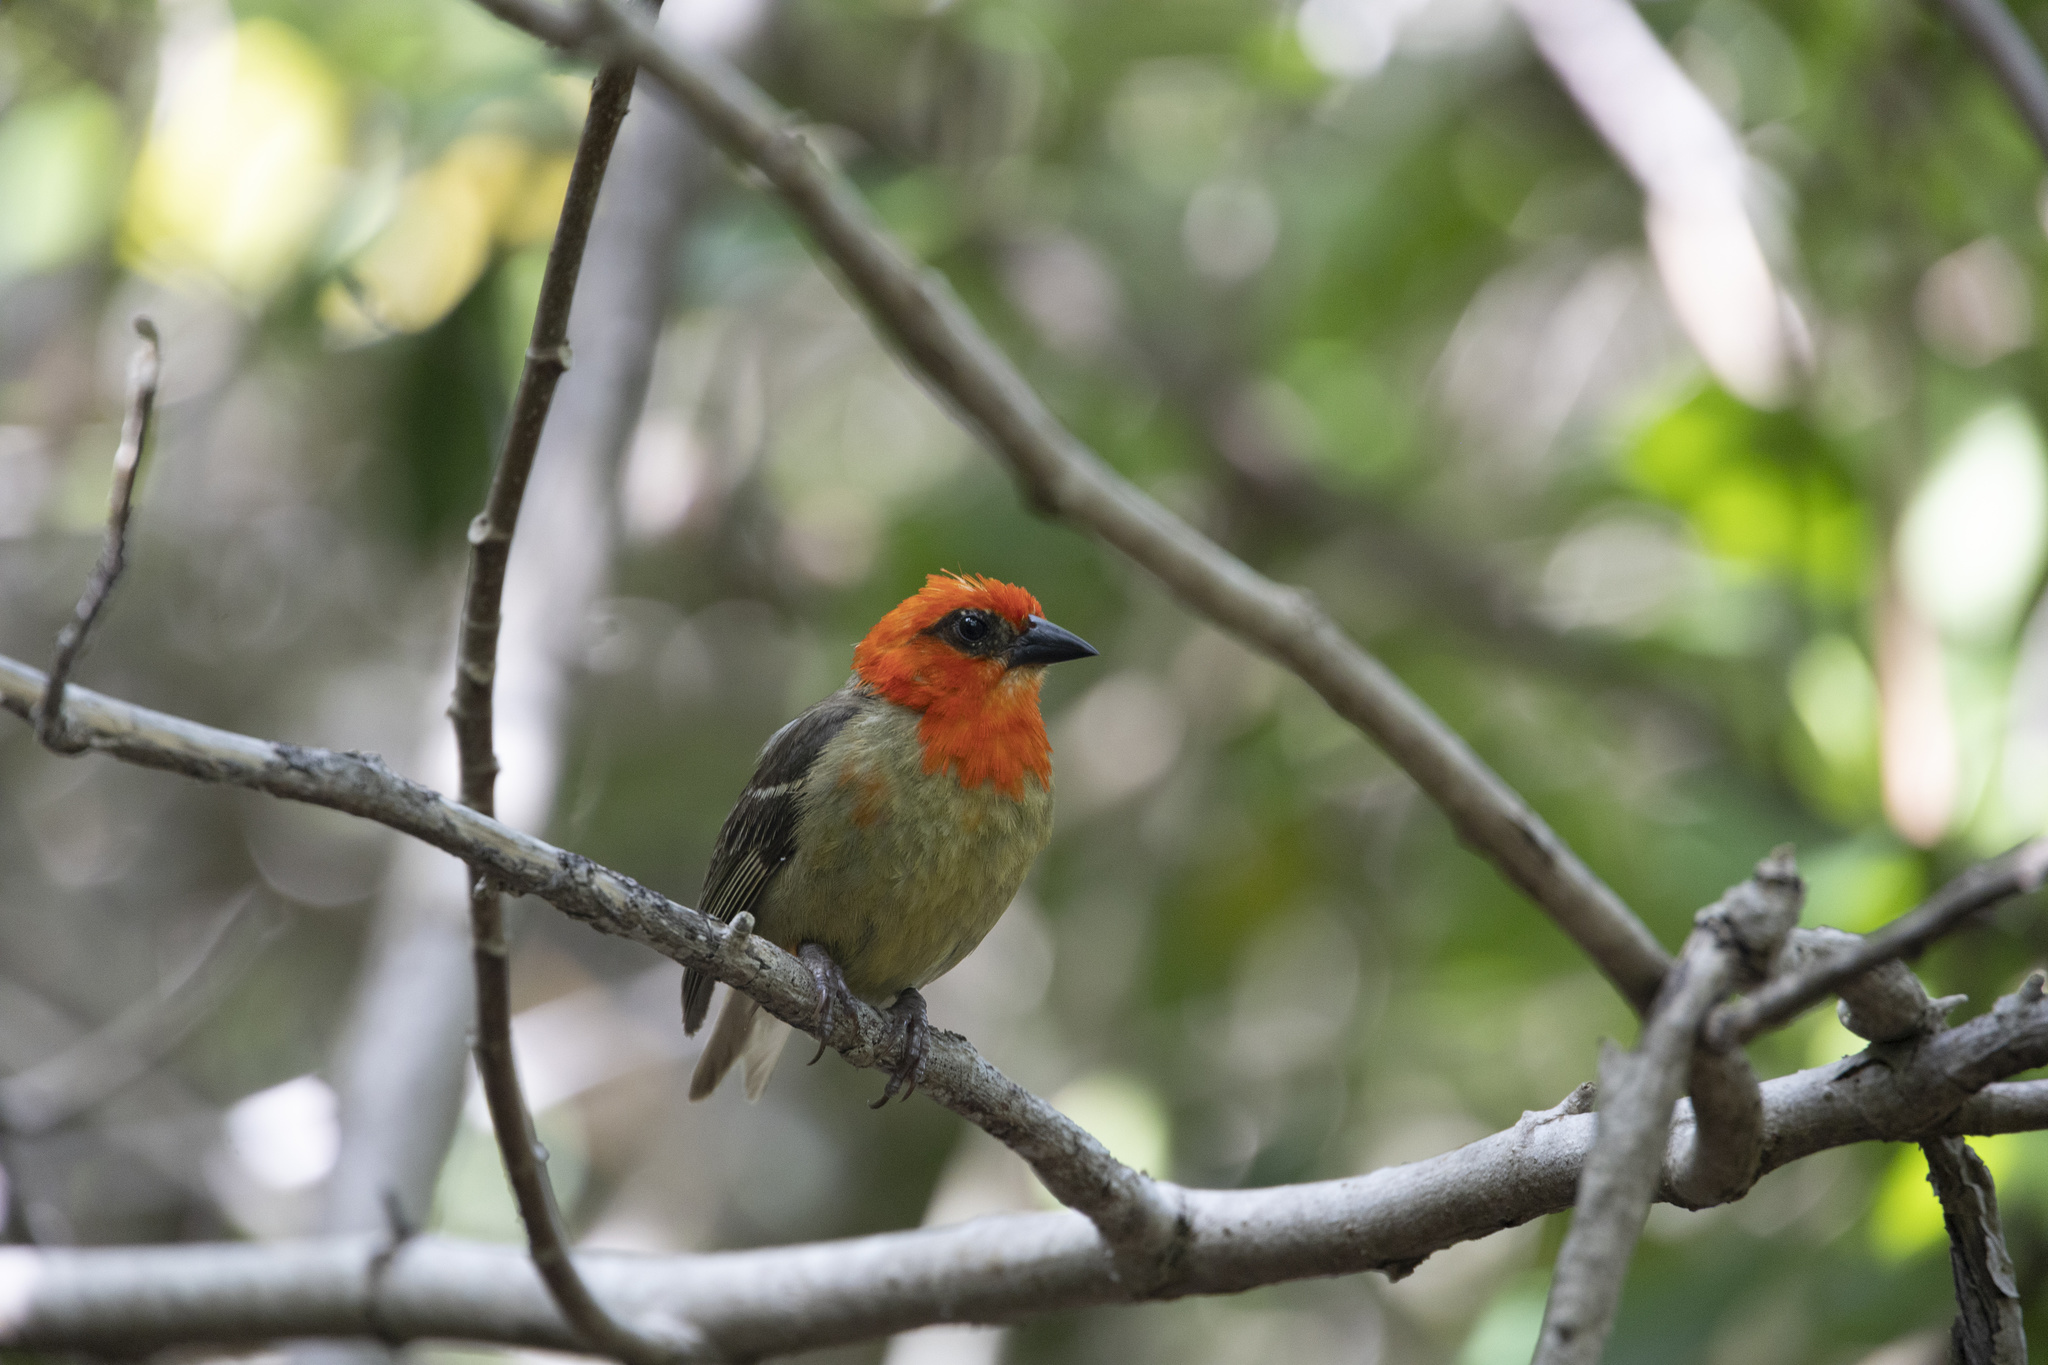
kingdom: Animalia
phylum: Chordata
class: Aves
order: Passeriformes
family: Ploceidae
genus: Foudia
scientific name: Foudia rubra
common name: Mauritius fody
